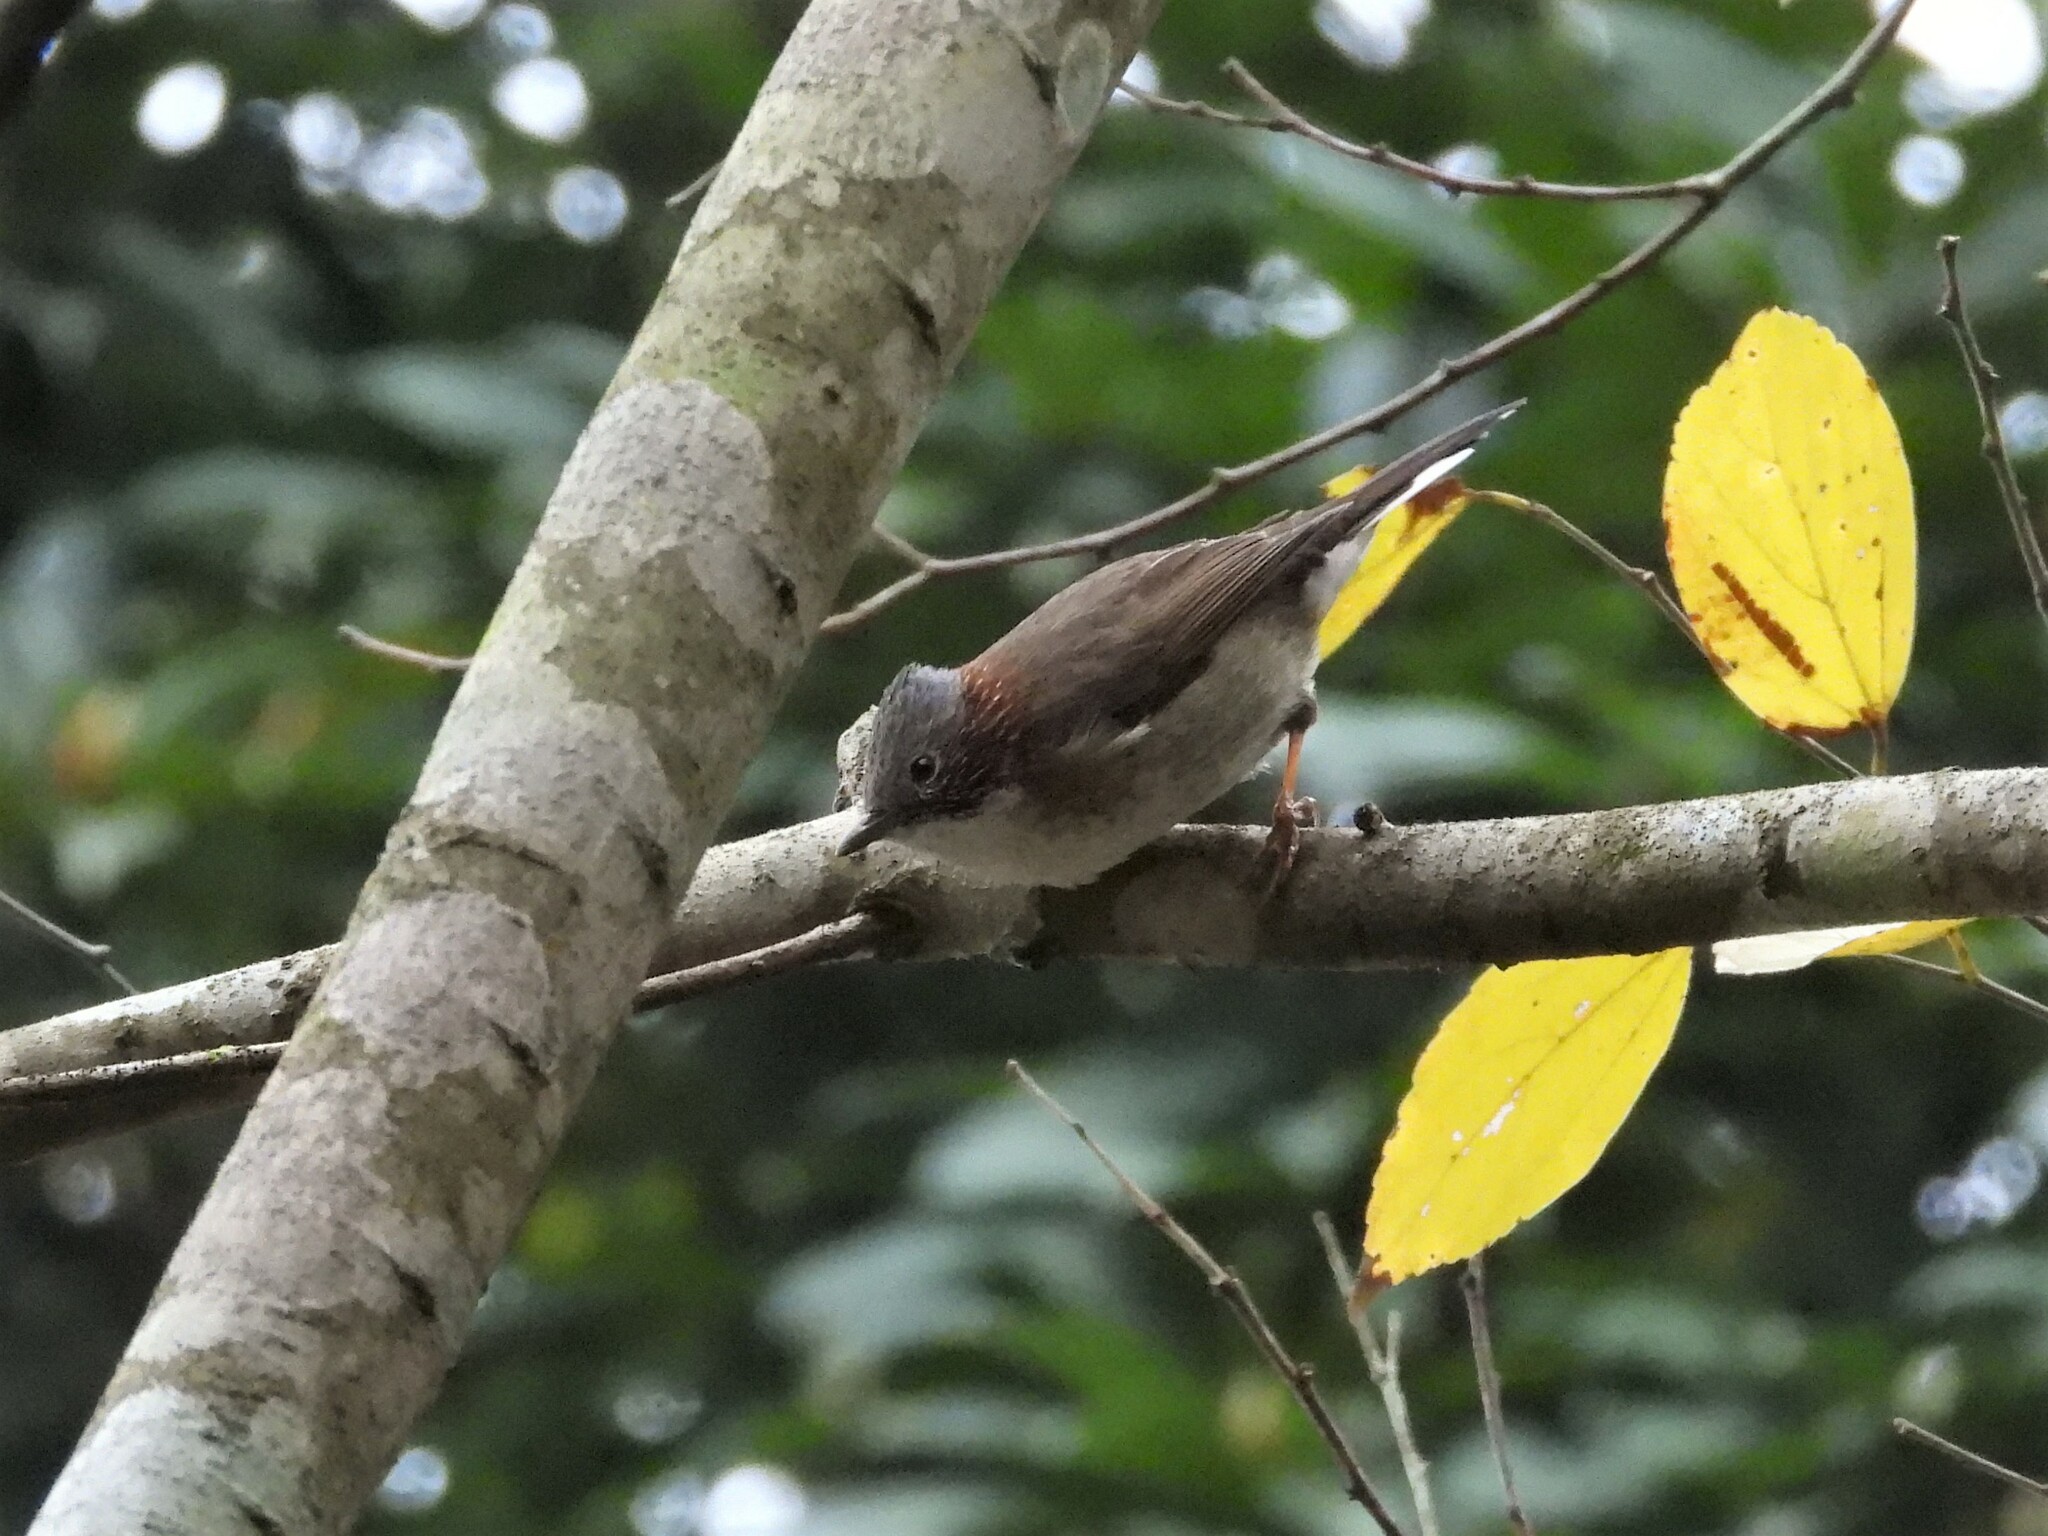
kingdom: Animalia
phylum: Chordata
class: Aves
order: Passeriformes
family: Zosteropidae
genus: Yuhina
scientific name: Yuhina torqueola
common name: Indochinese yuhina
